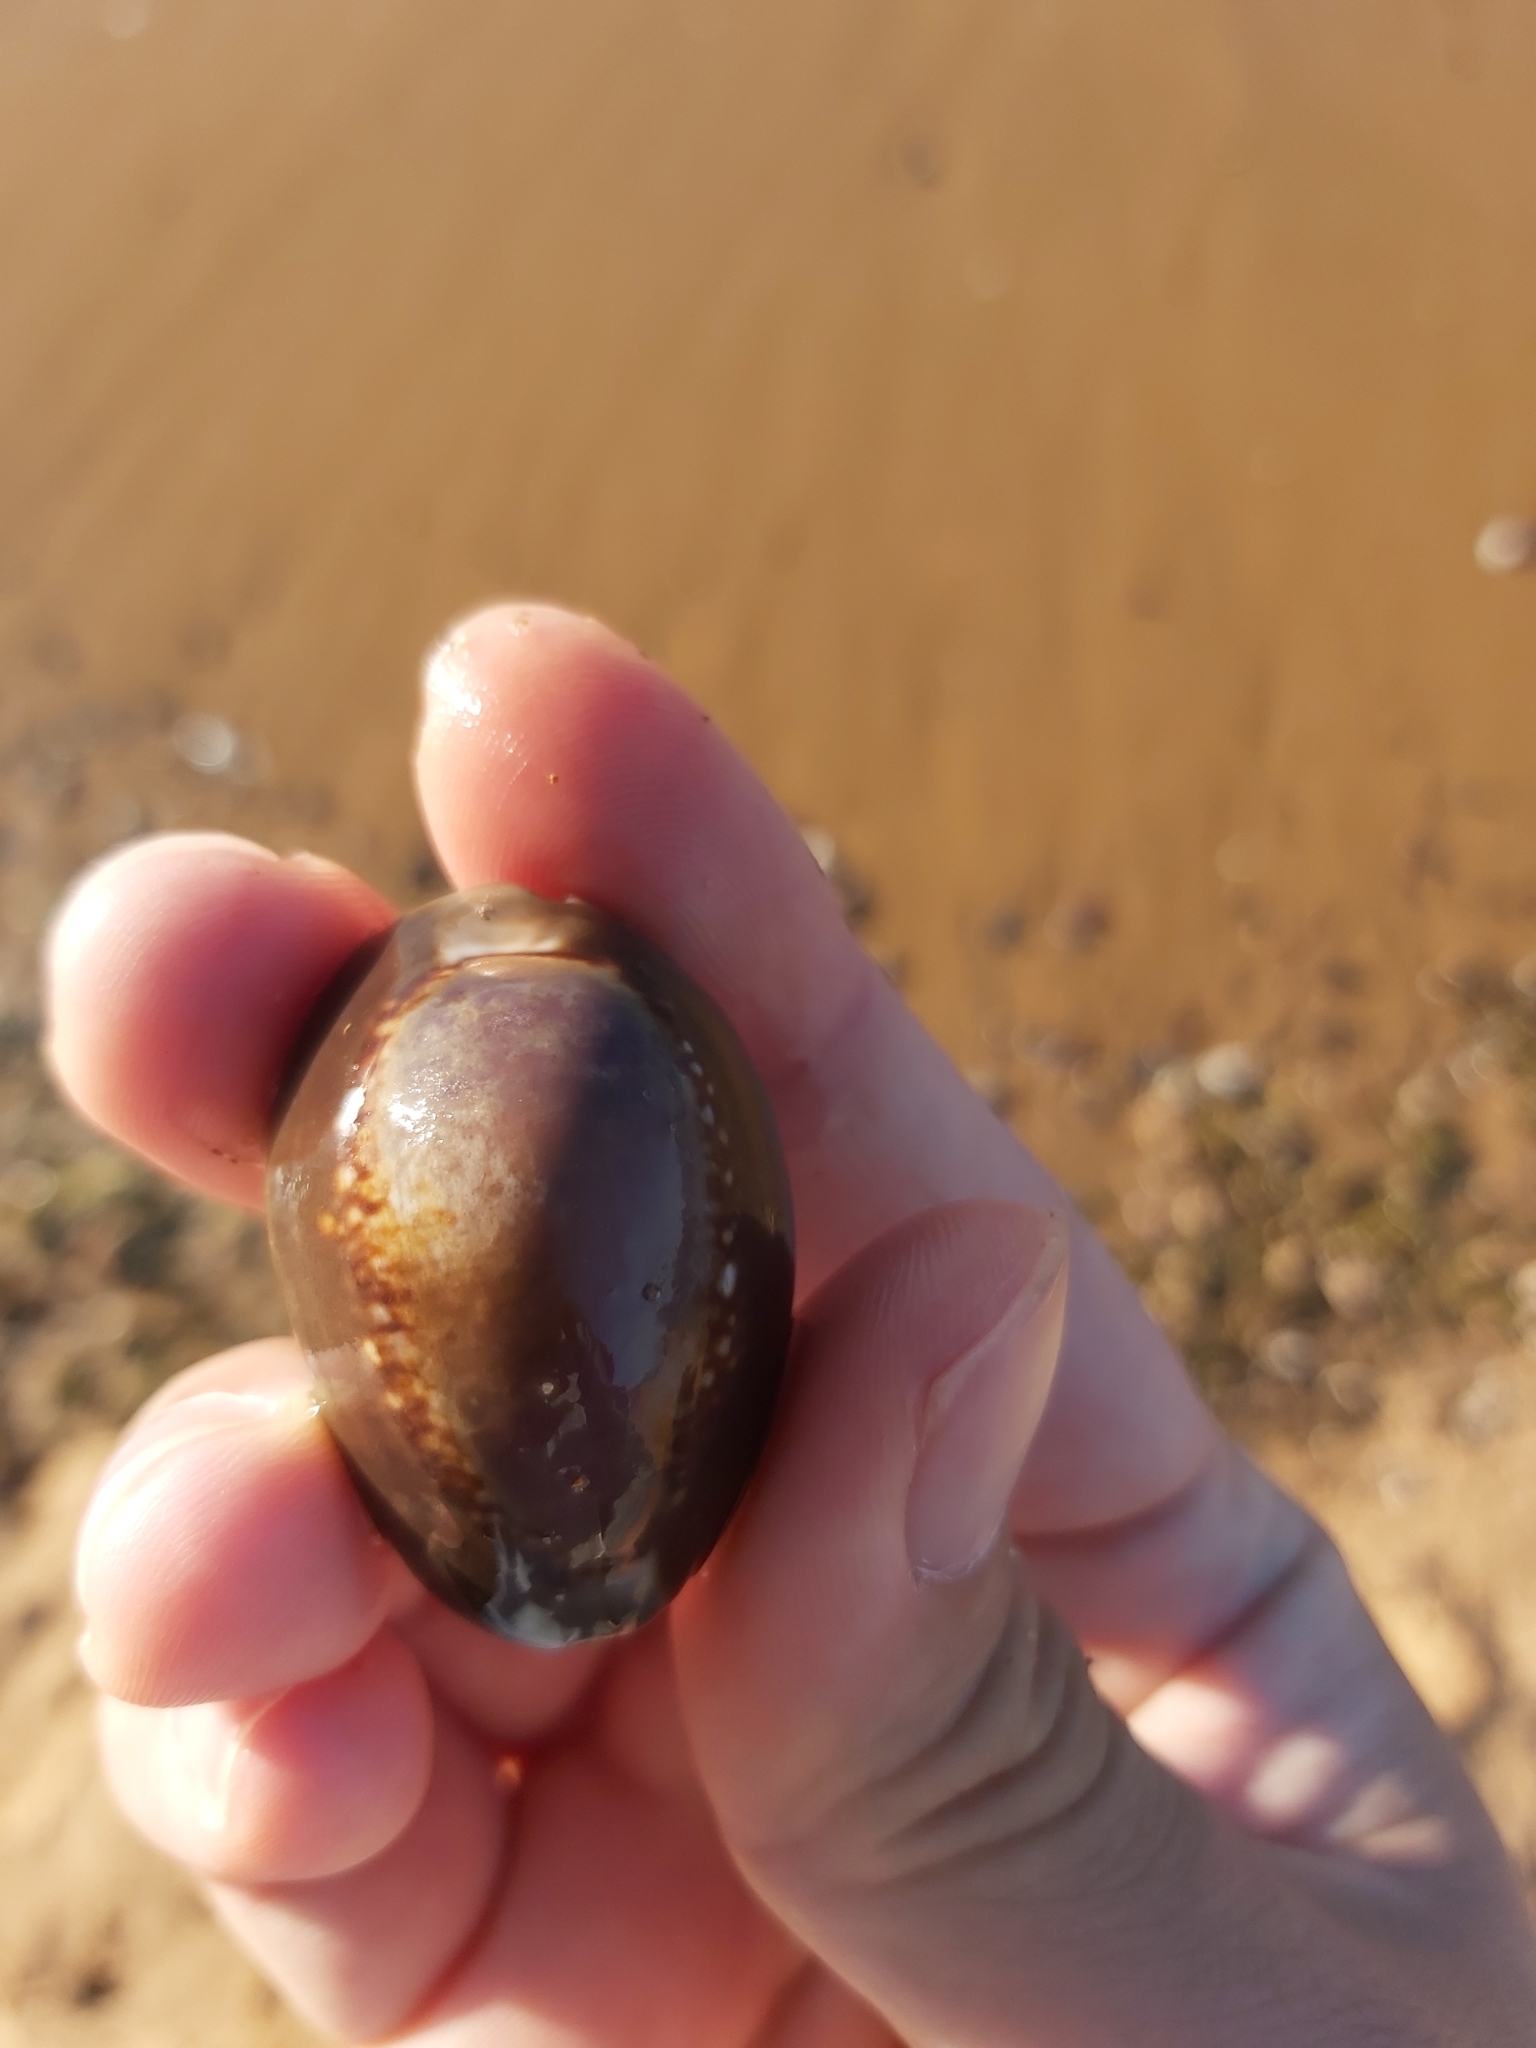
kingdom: Animalia
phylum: Mollusca
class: Gastropoda
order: Littorinimorpha
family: Cypraeidae
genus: Monetaria
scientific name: Monetaria caputserpentis
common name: Serpent's head cowrie
